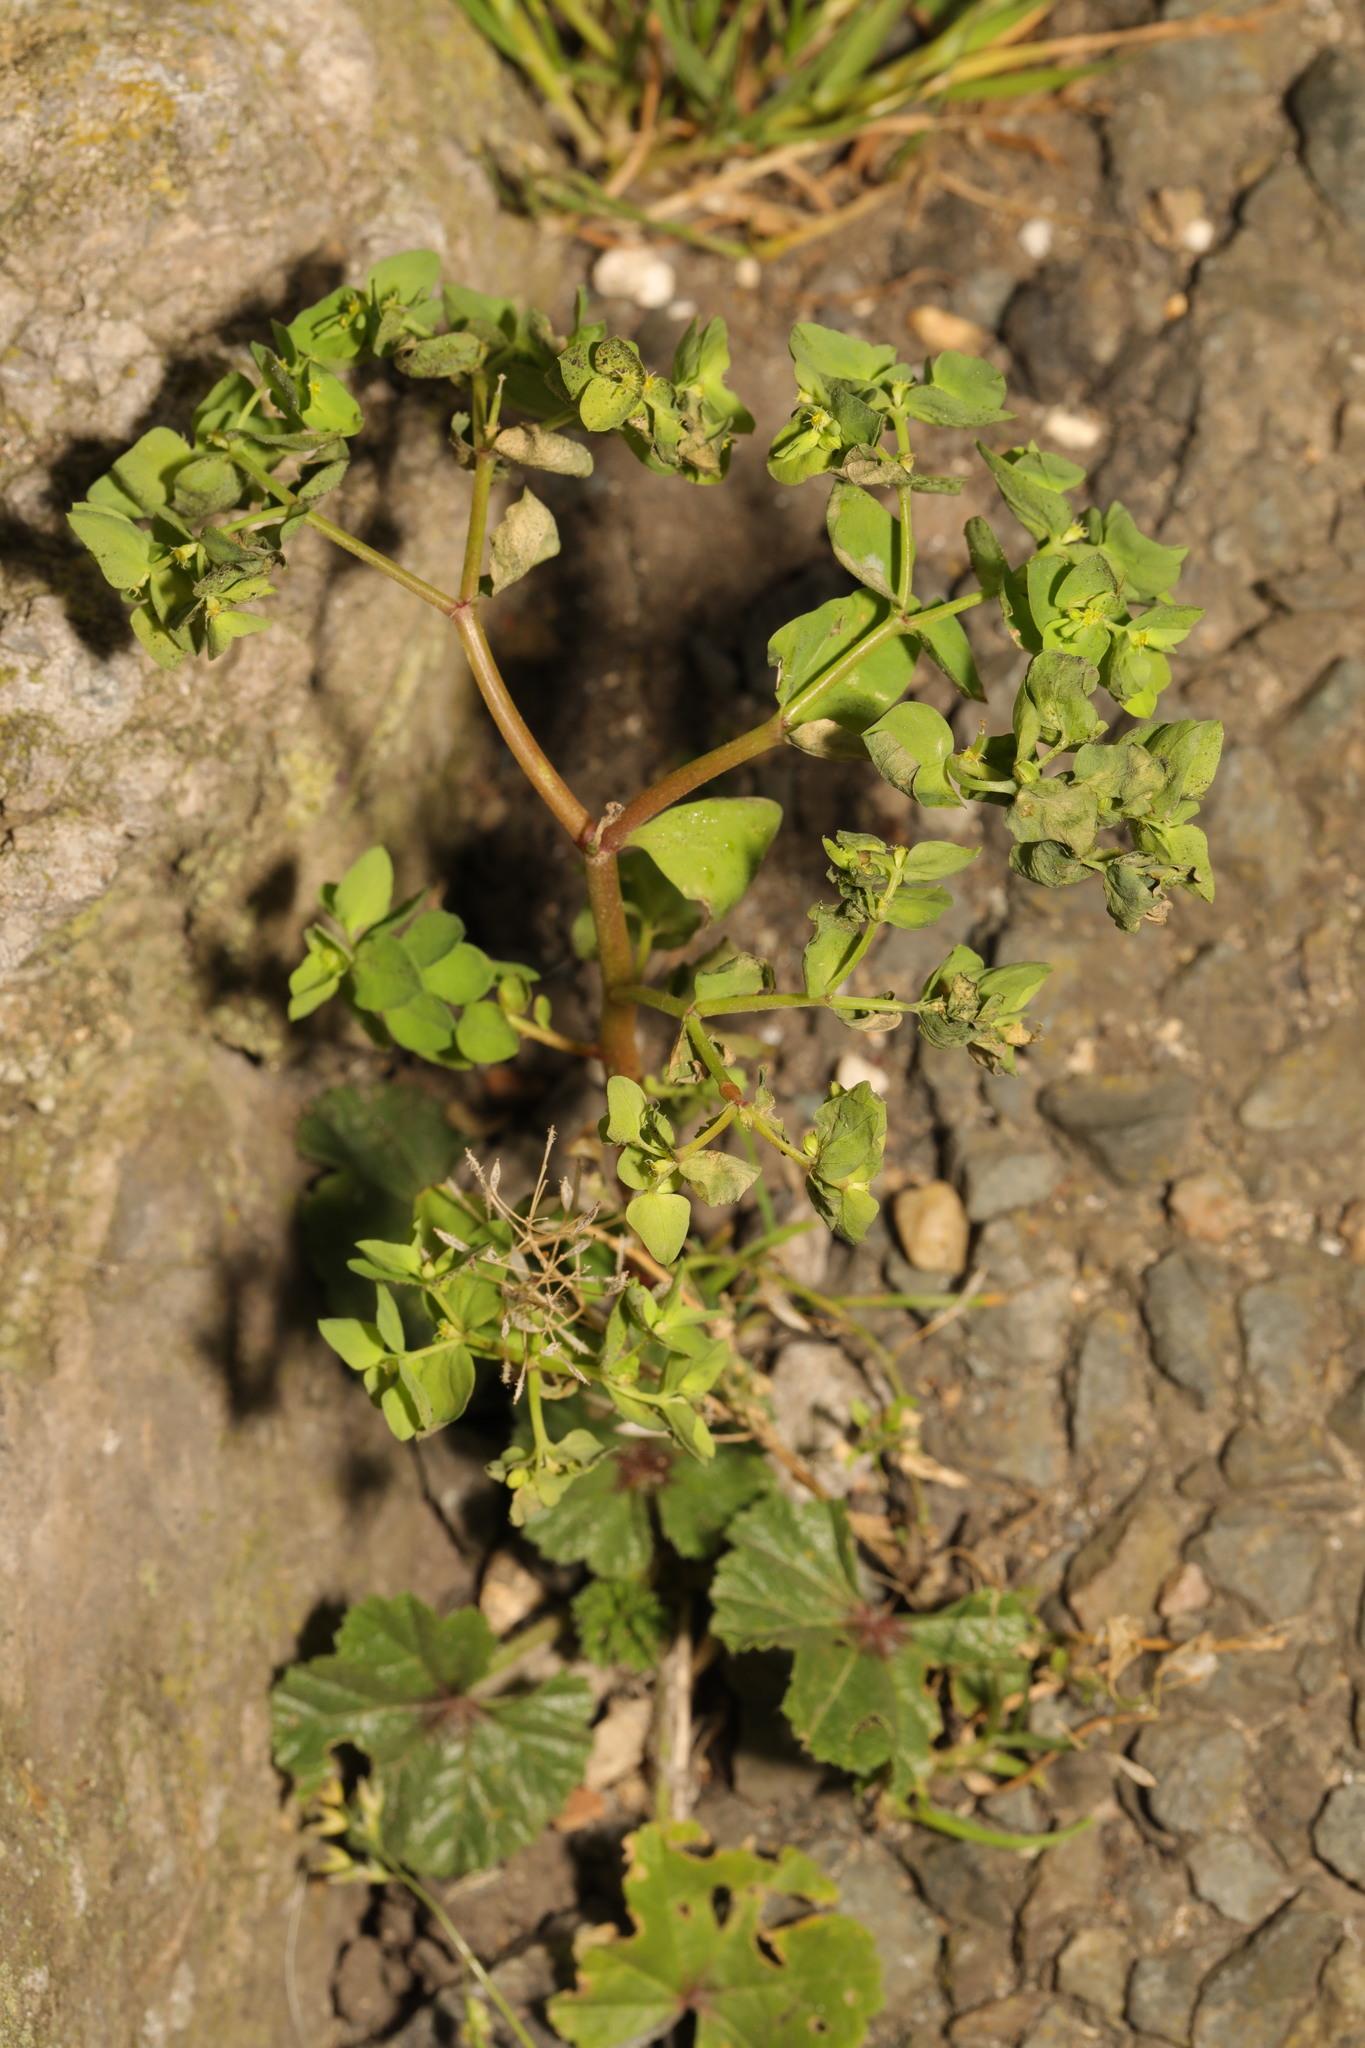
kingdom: Plantae
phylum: Tracheophyta
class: Magnoliopsida
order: Malpighiales
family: Euphorbiaceae
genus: Euphorbia
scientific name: Euphorbia peplus
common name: Petty spurge
